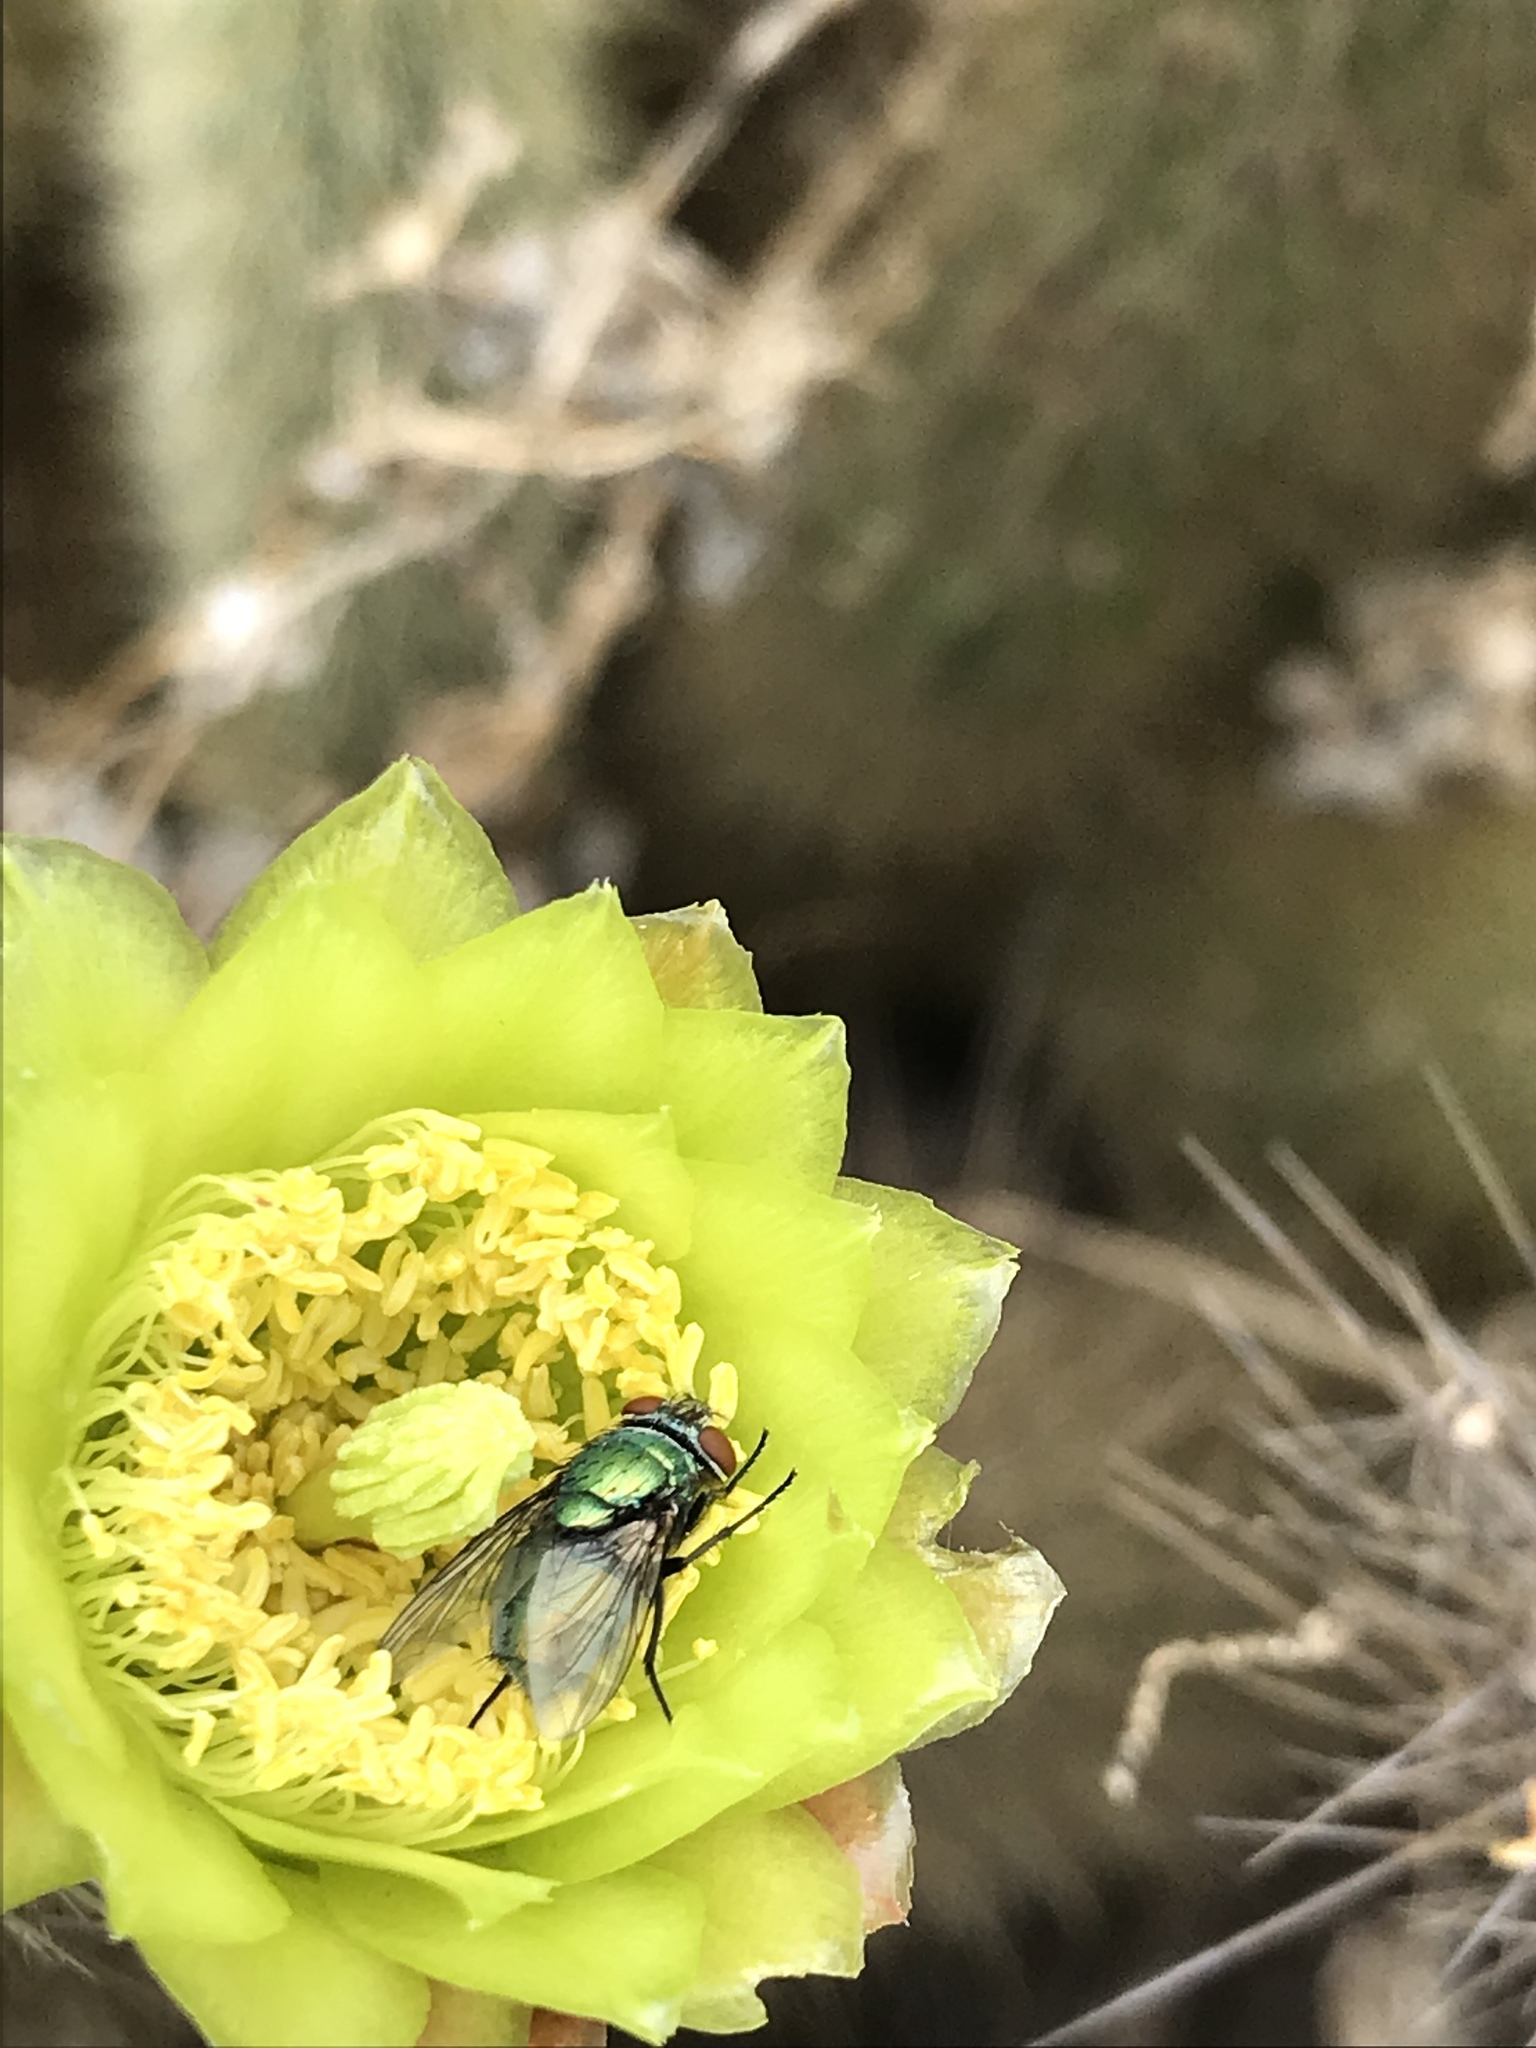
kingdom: Animalia
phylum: Arthropoda
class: Insecta
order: Diptera
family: Calliphoridae
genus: Lucilia
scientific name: Lucilia sericata
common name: Blow fly
